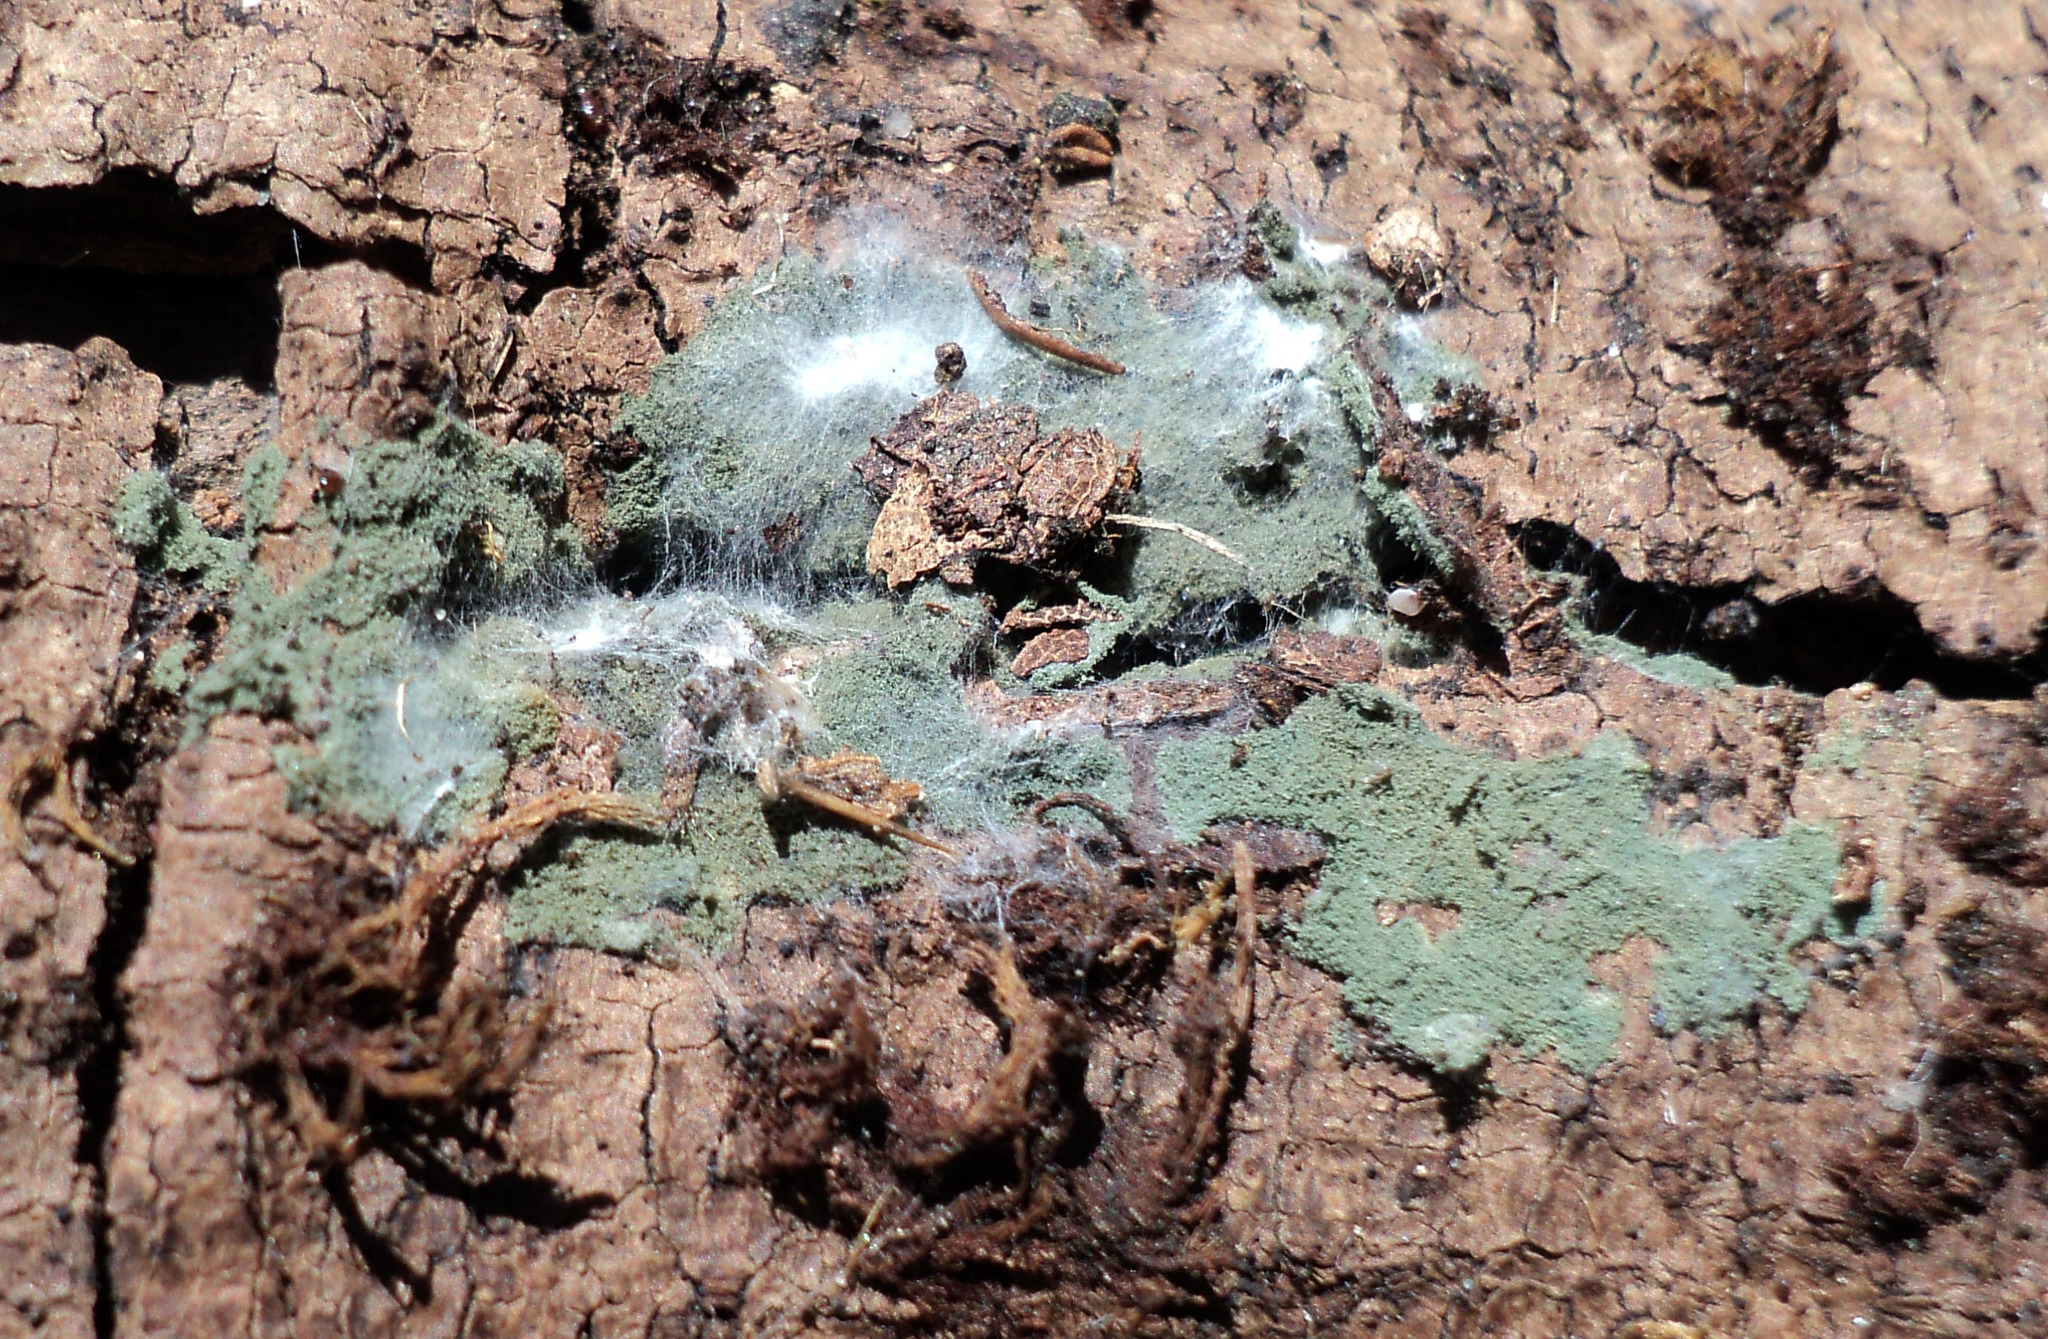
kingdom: Fungi
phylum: Ascomycota
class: Sordariomycetes
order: Hypocreales
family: Hypocreaceae
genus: Trichoderma
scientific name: Trichoderma viride
